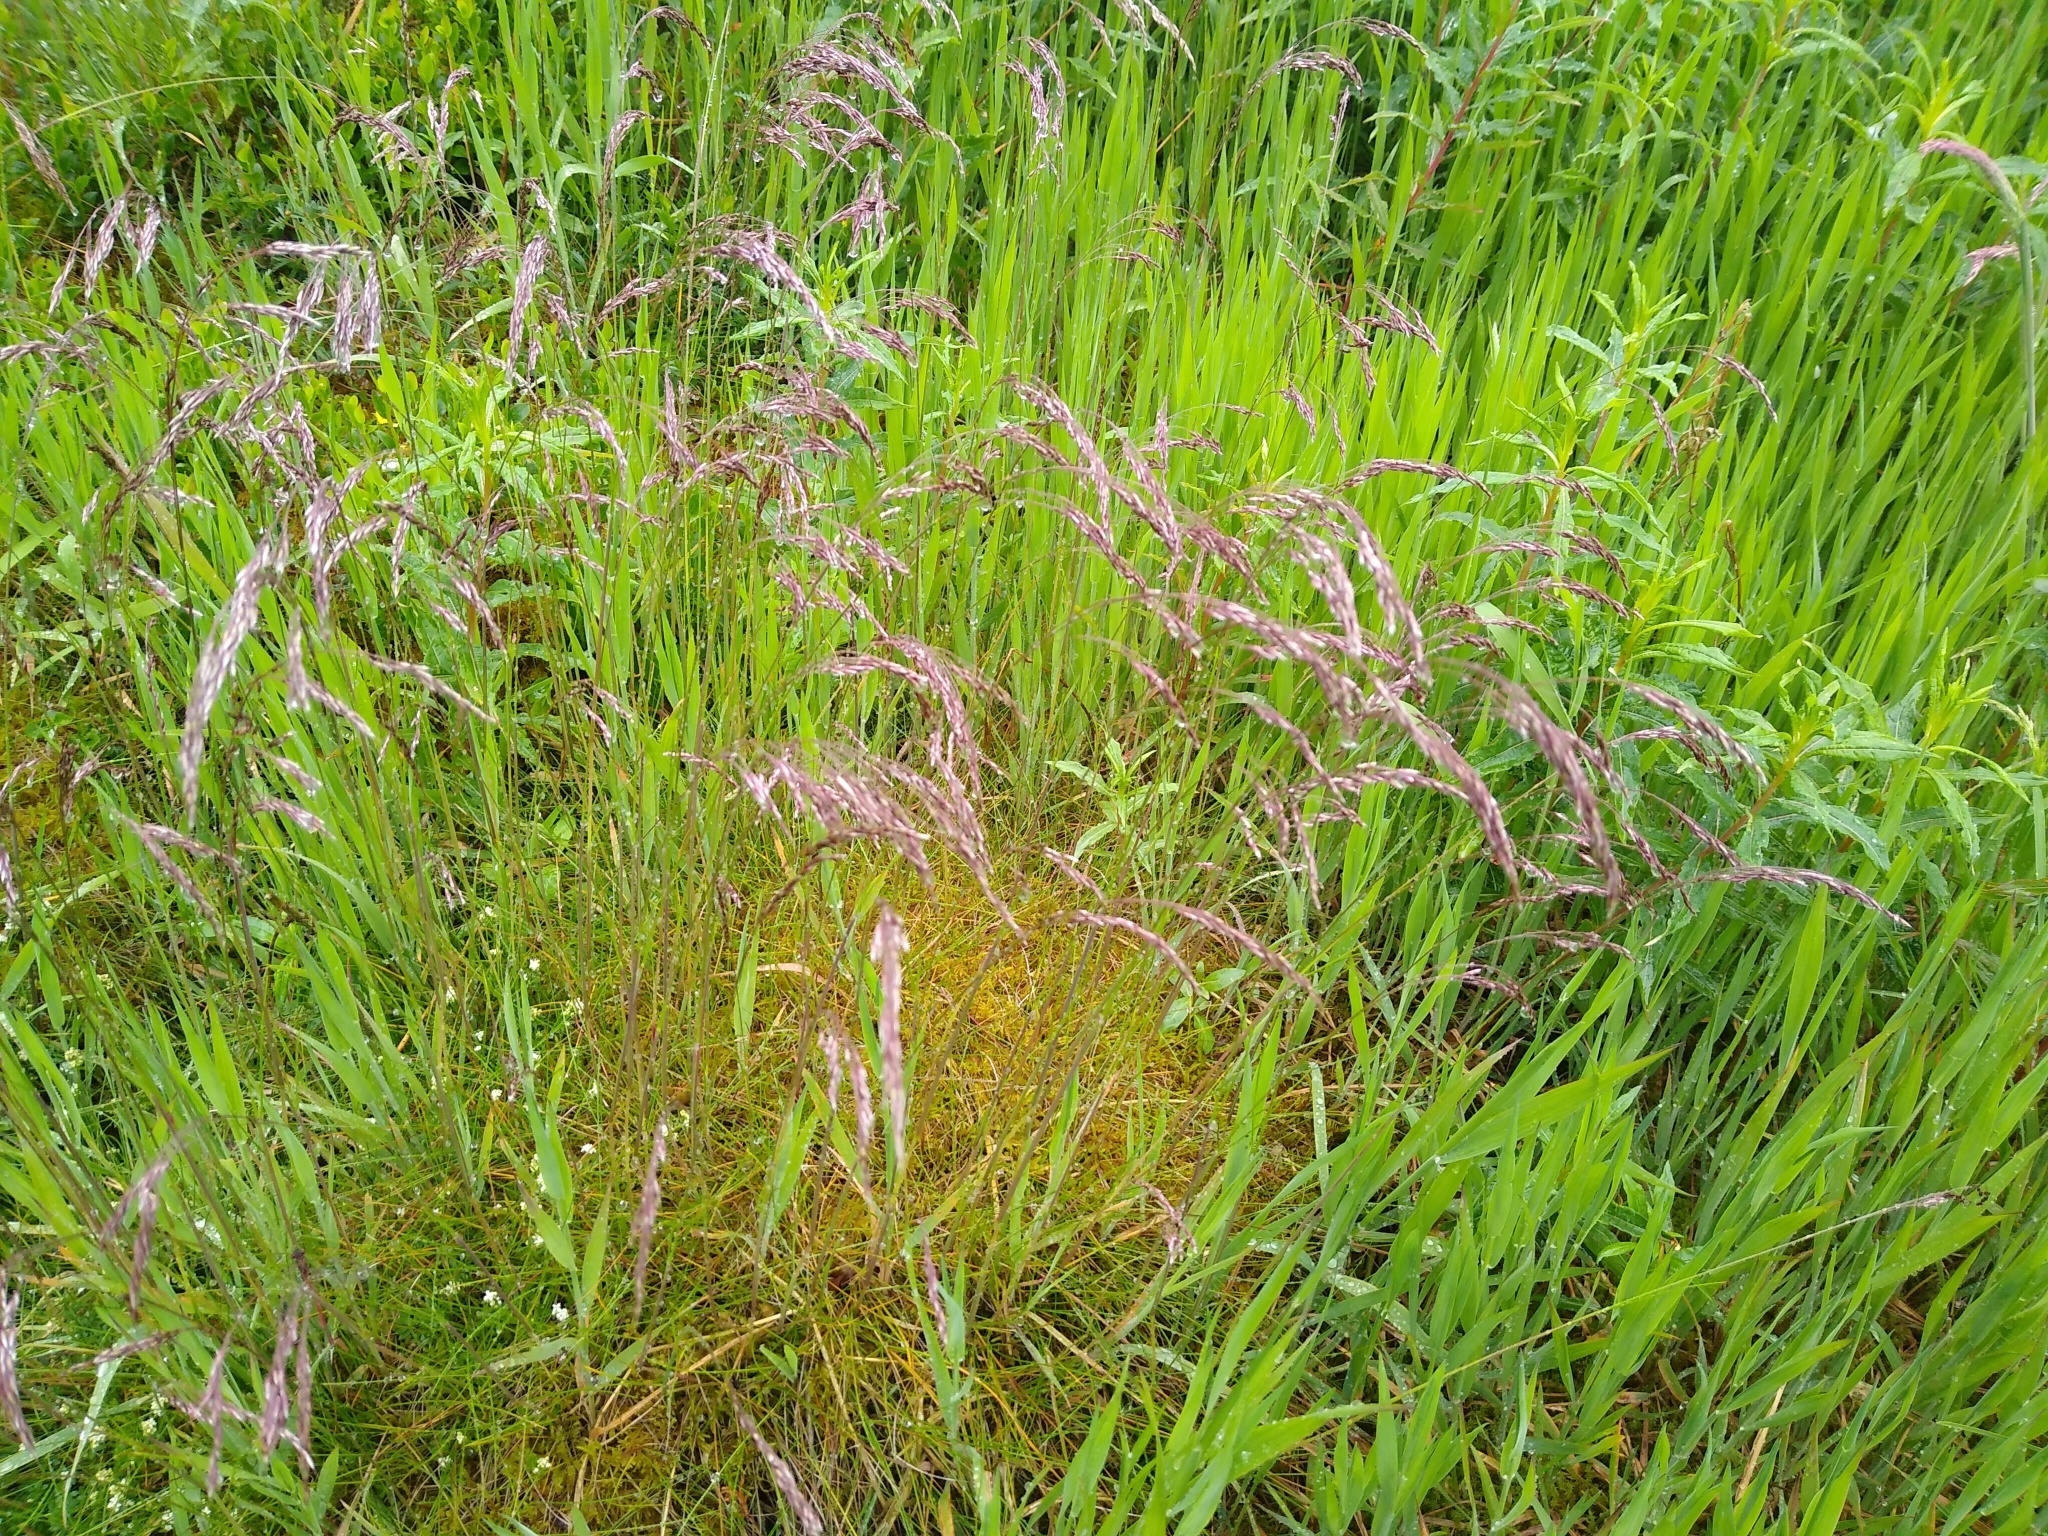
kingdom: Plantae
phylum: Tracheophyta
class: Liliopsida
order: Poales
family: Poaceae
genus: Avenella
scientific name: Avenella flexuosa
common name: Wavy hairgrass
